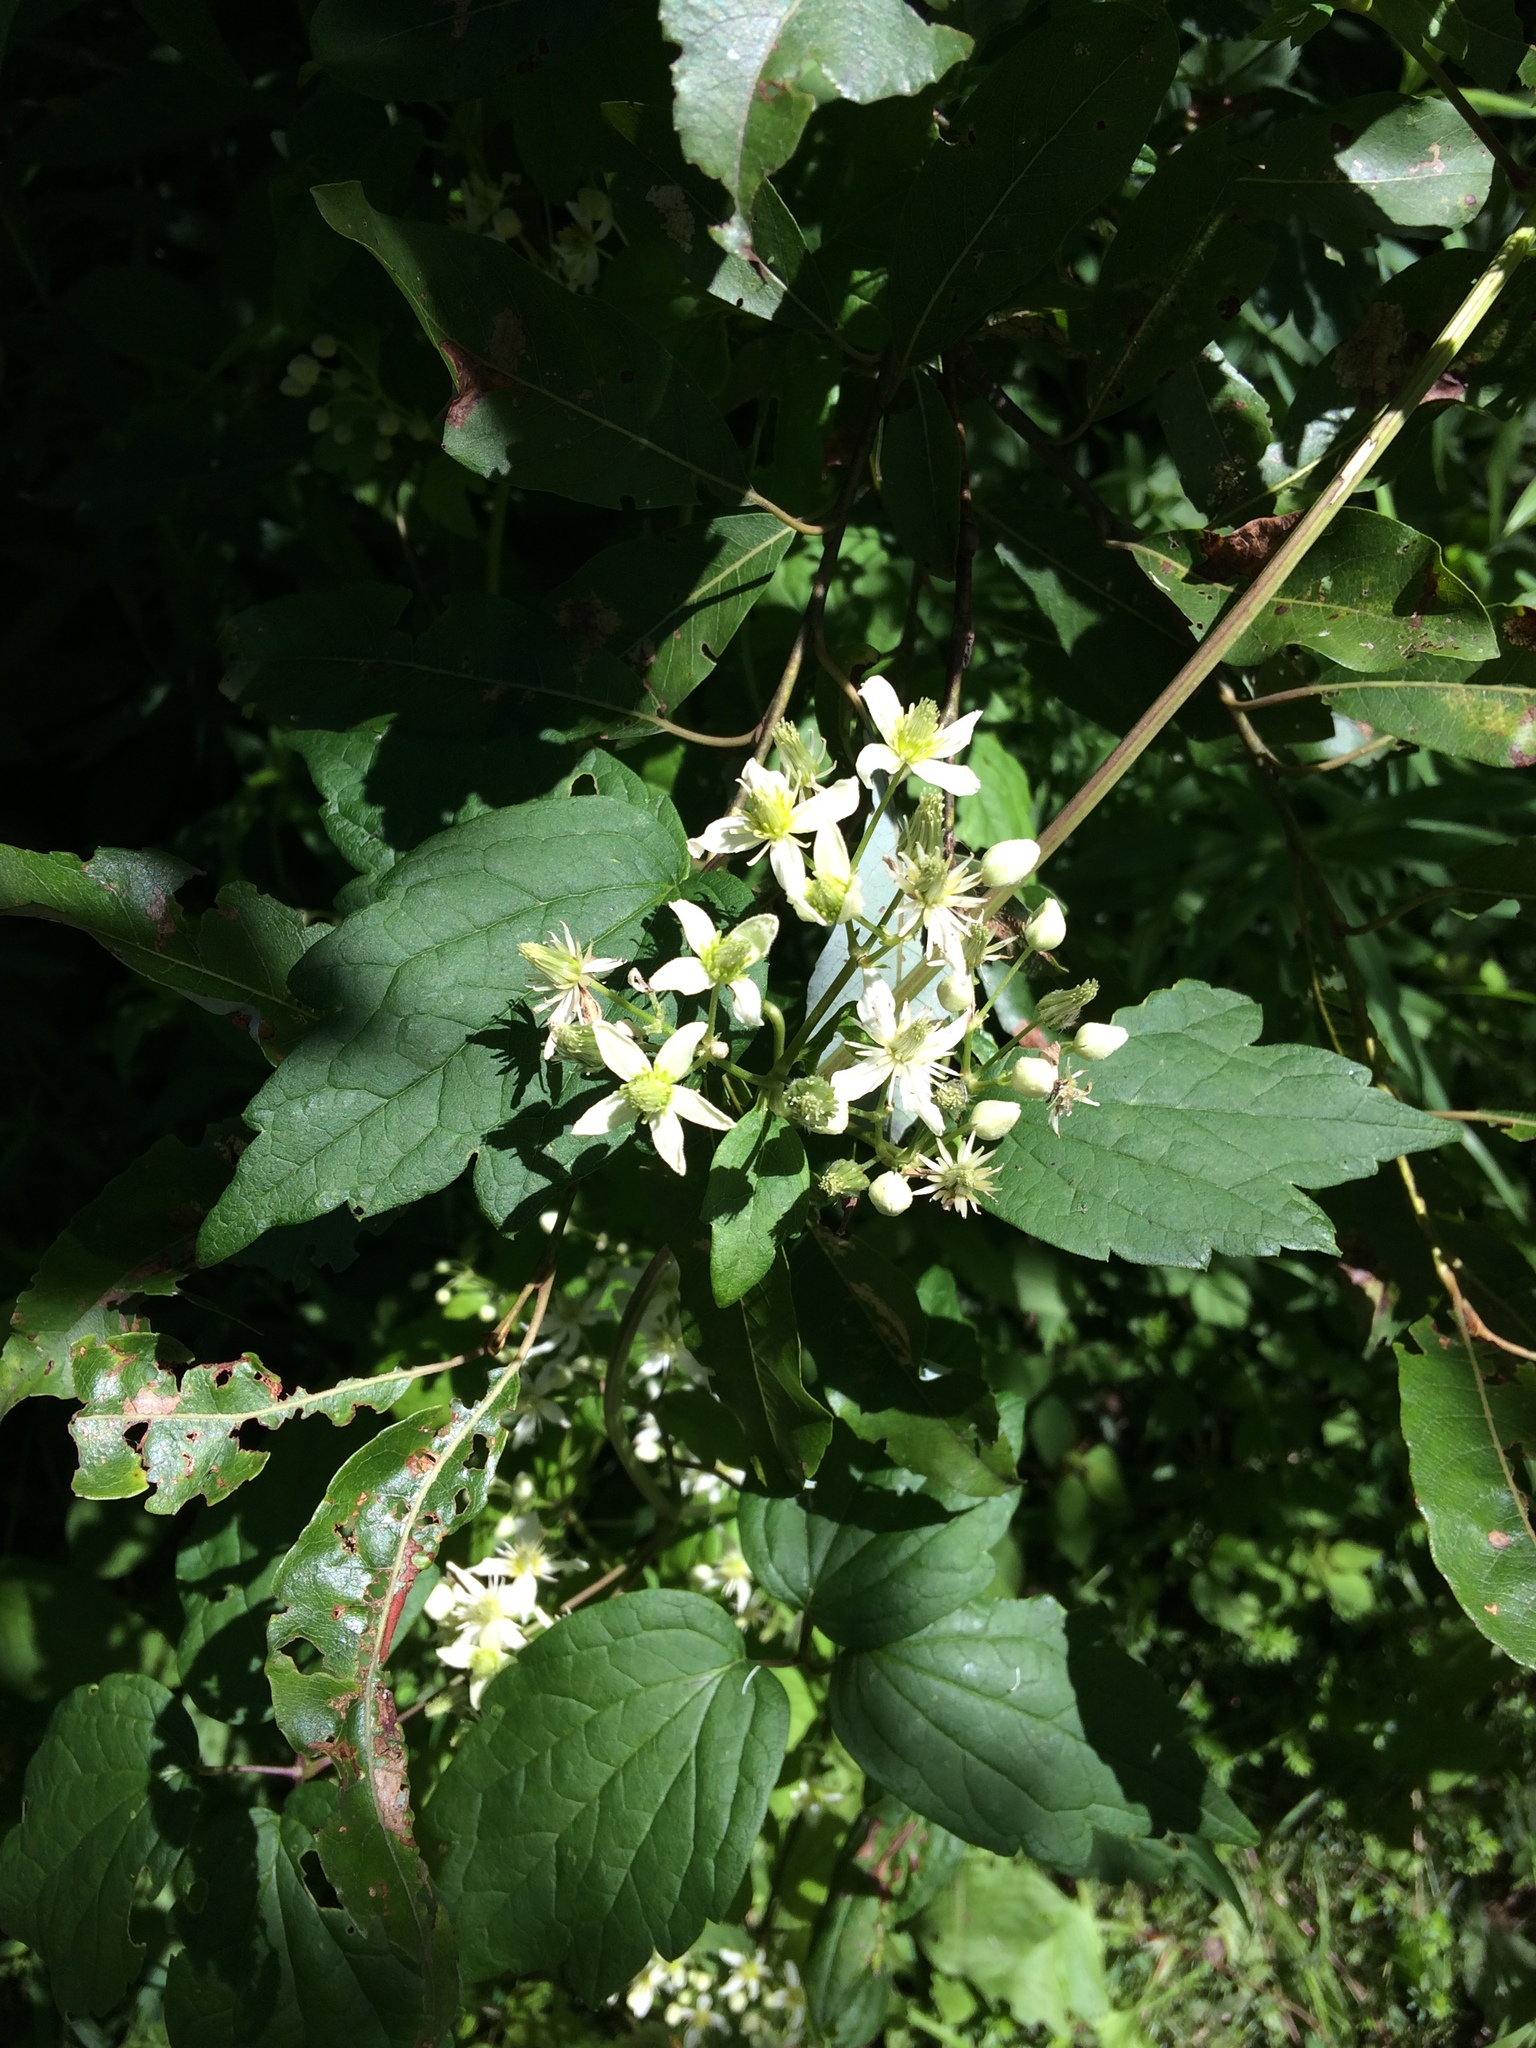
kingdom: Plantae
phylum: Tracheophyta
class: Magnoliopsida
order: Ranunculales
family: Ranunculaceae
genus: Clematis
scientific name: Clematis virginiana
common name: Virgin's-bower
